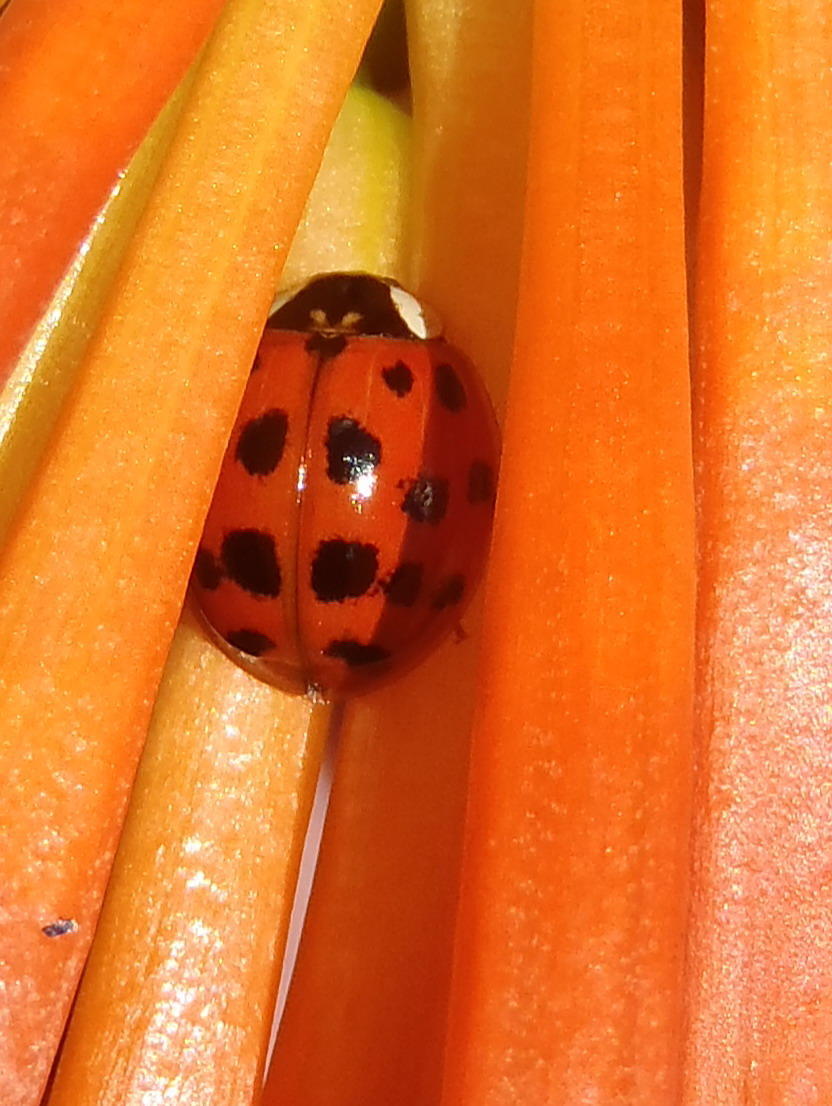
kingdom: Animalia
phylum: Arthropoda
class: Insecta
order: Coleoptera
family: Coccinellidae
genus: Harmonia
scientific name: Harmonia axyridis
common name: Harlequin ladybird
